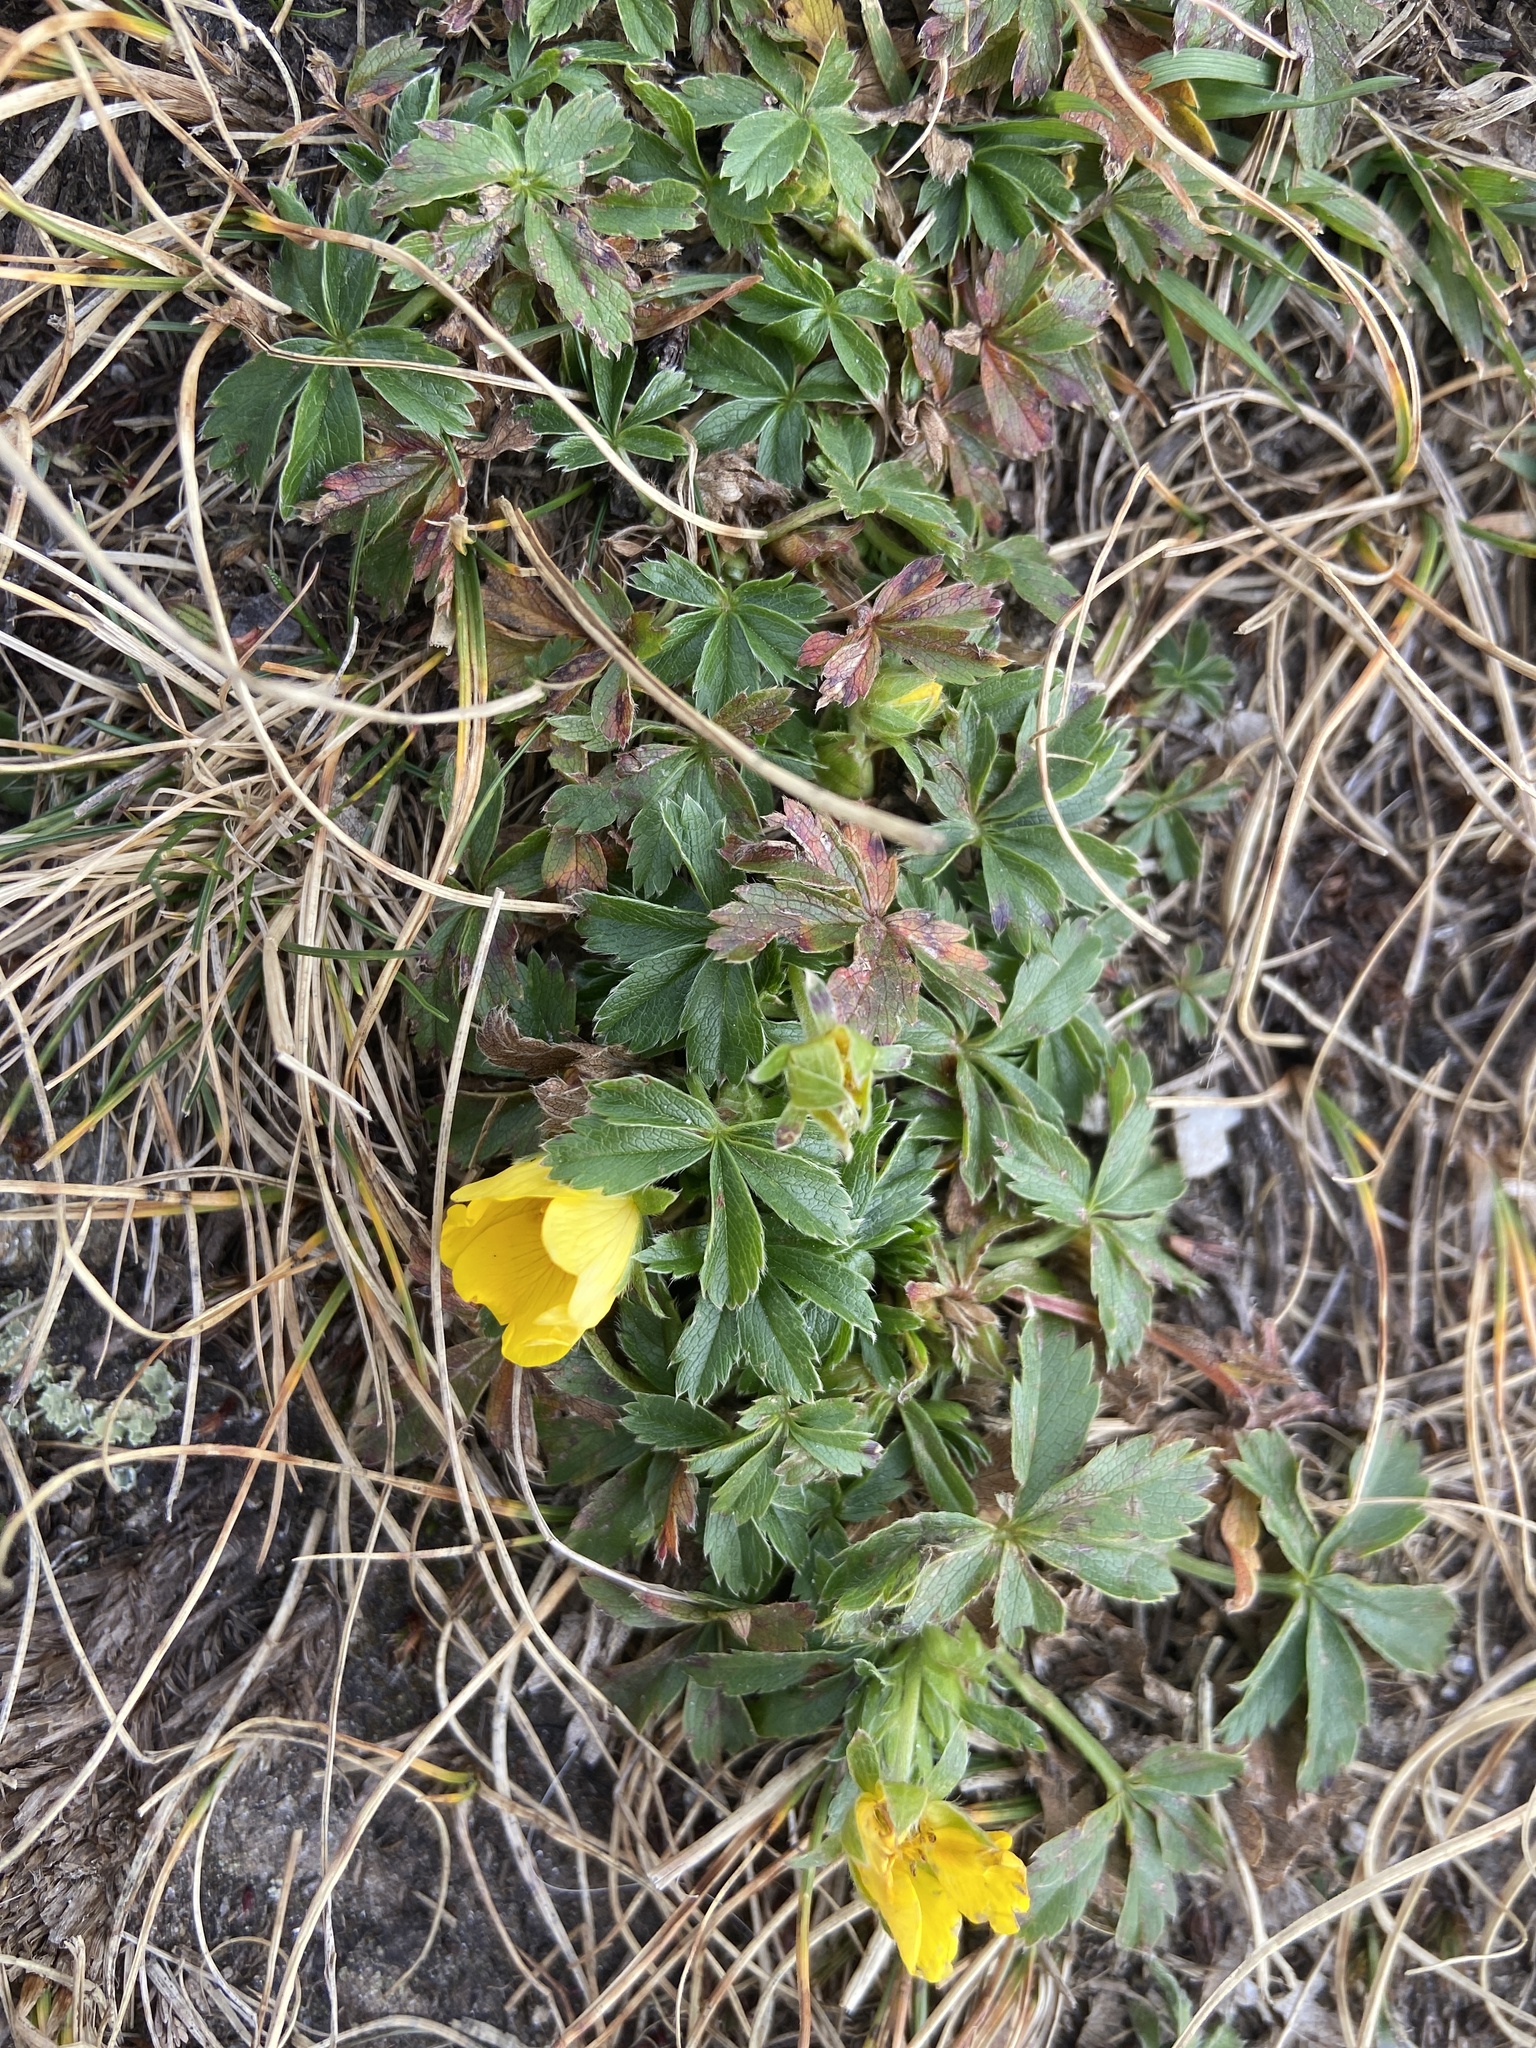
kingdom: Plantae
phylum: Tracheophyta
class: Magnoliopsida
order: Rosales
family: Rosaceae
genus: Potentilla
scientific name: Potentilla aurea
